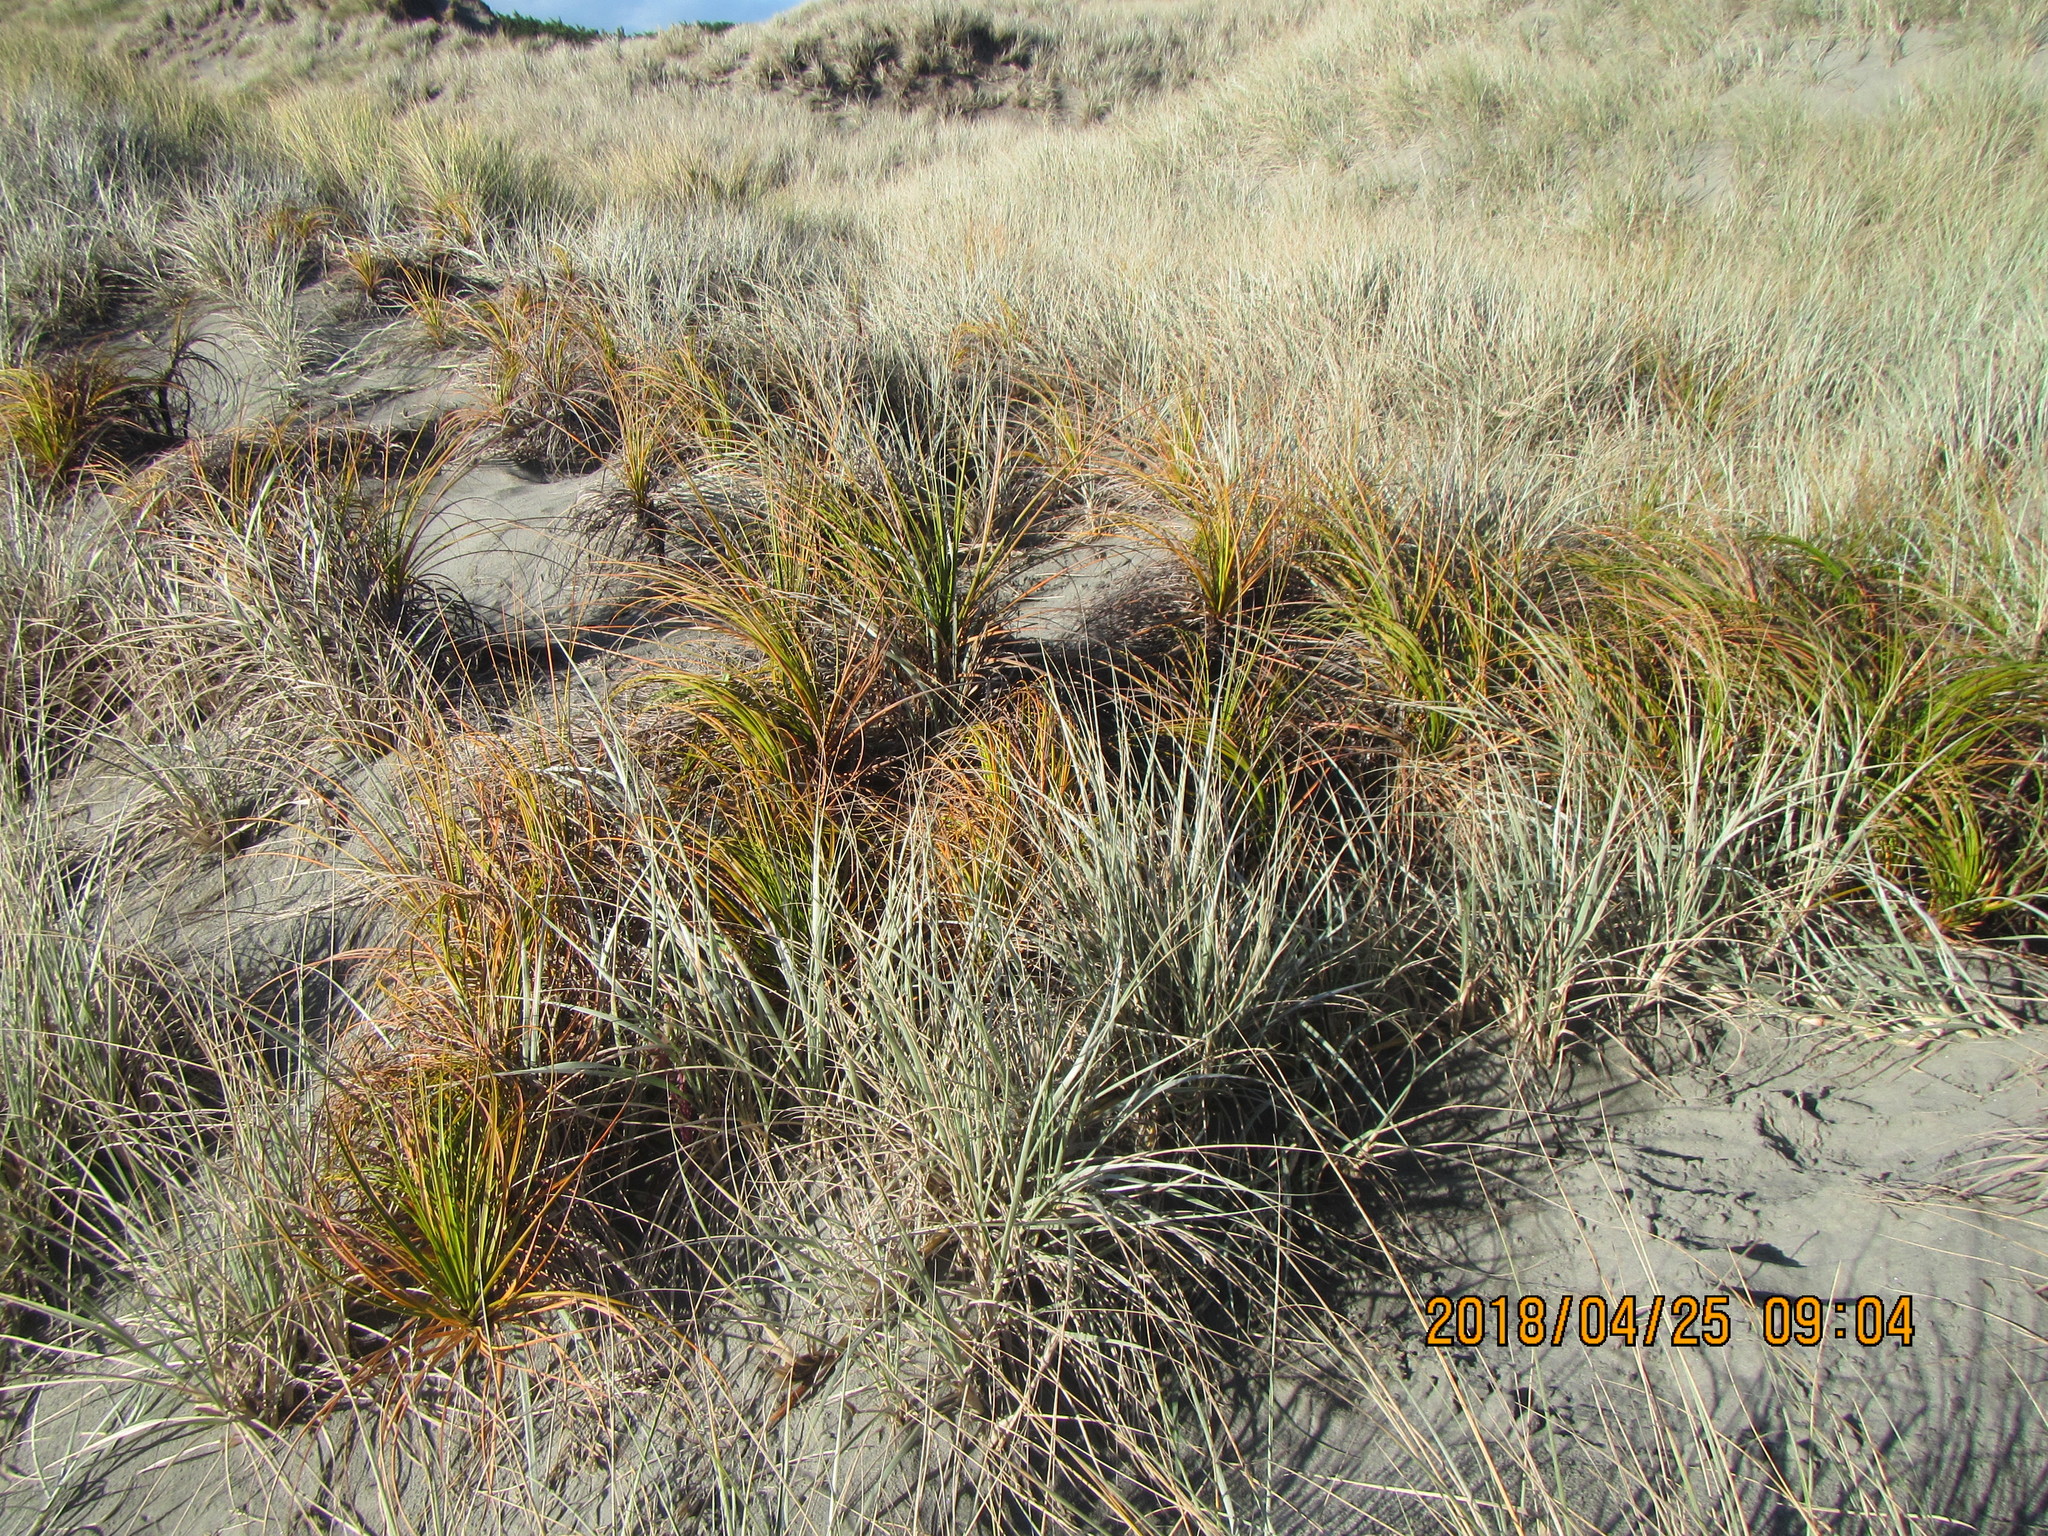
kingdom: Plantae
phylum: Tracheophyta
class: Liliopsida
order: Poales
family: Cyperaceae
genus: Ficinia
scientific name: Ficinia spiralis
